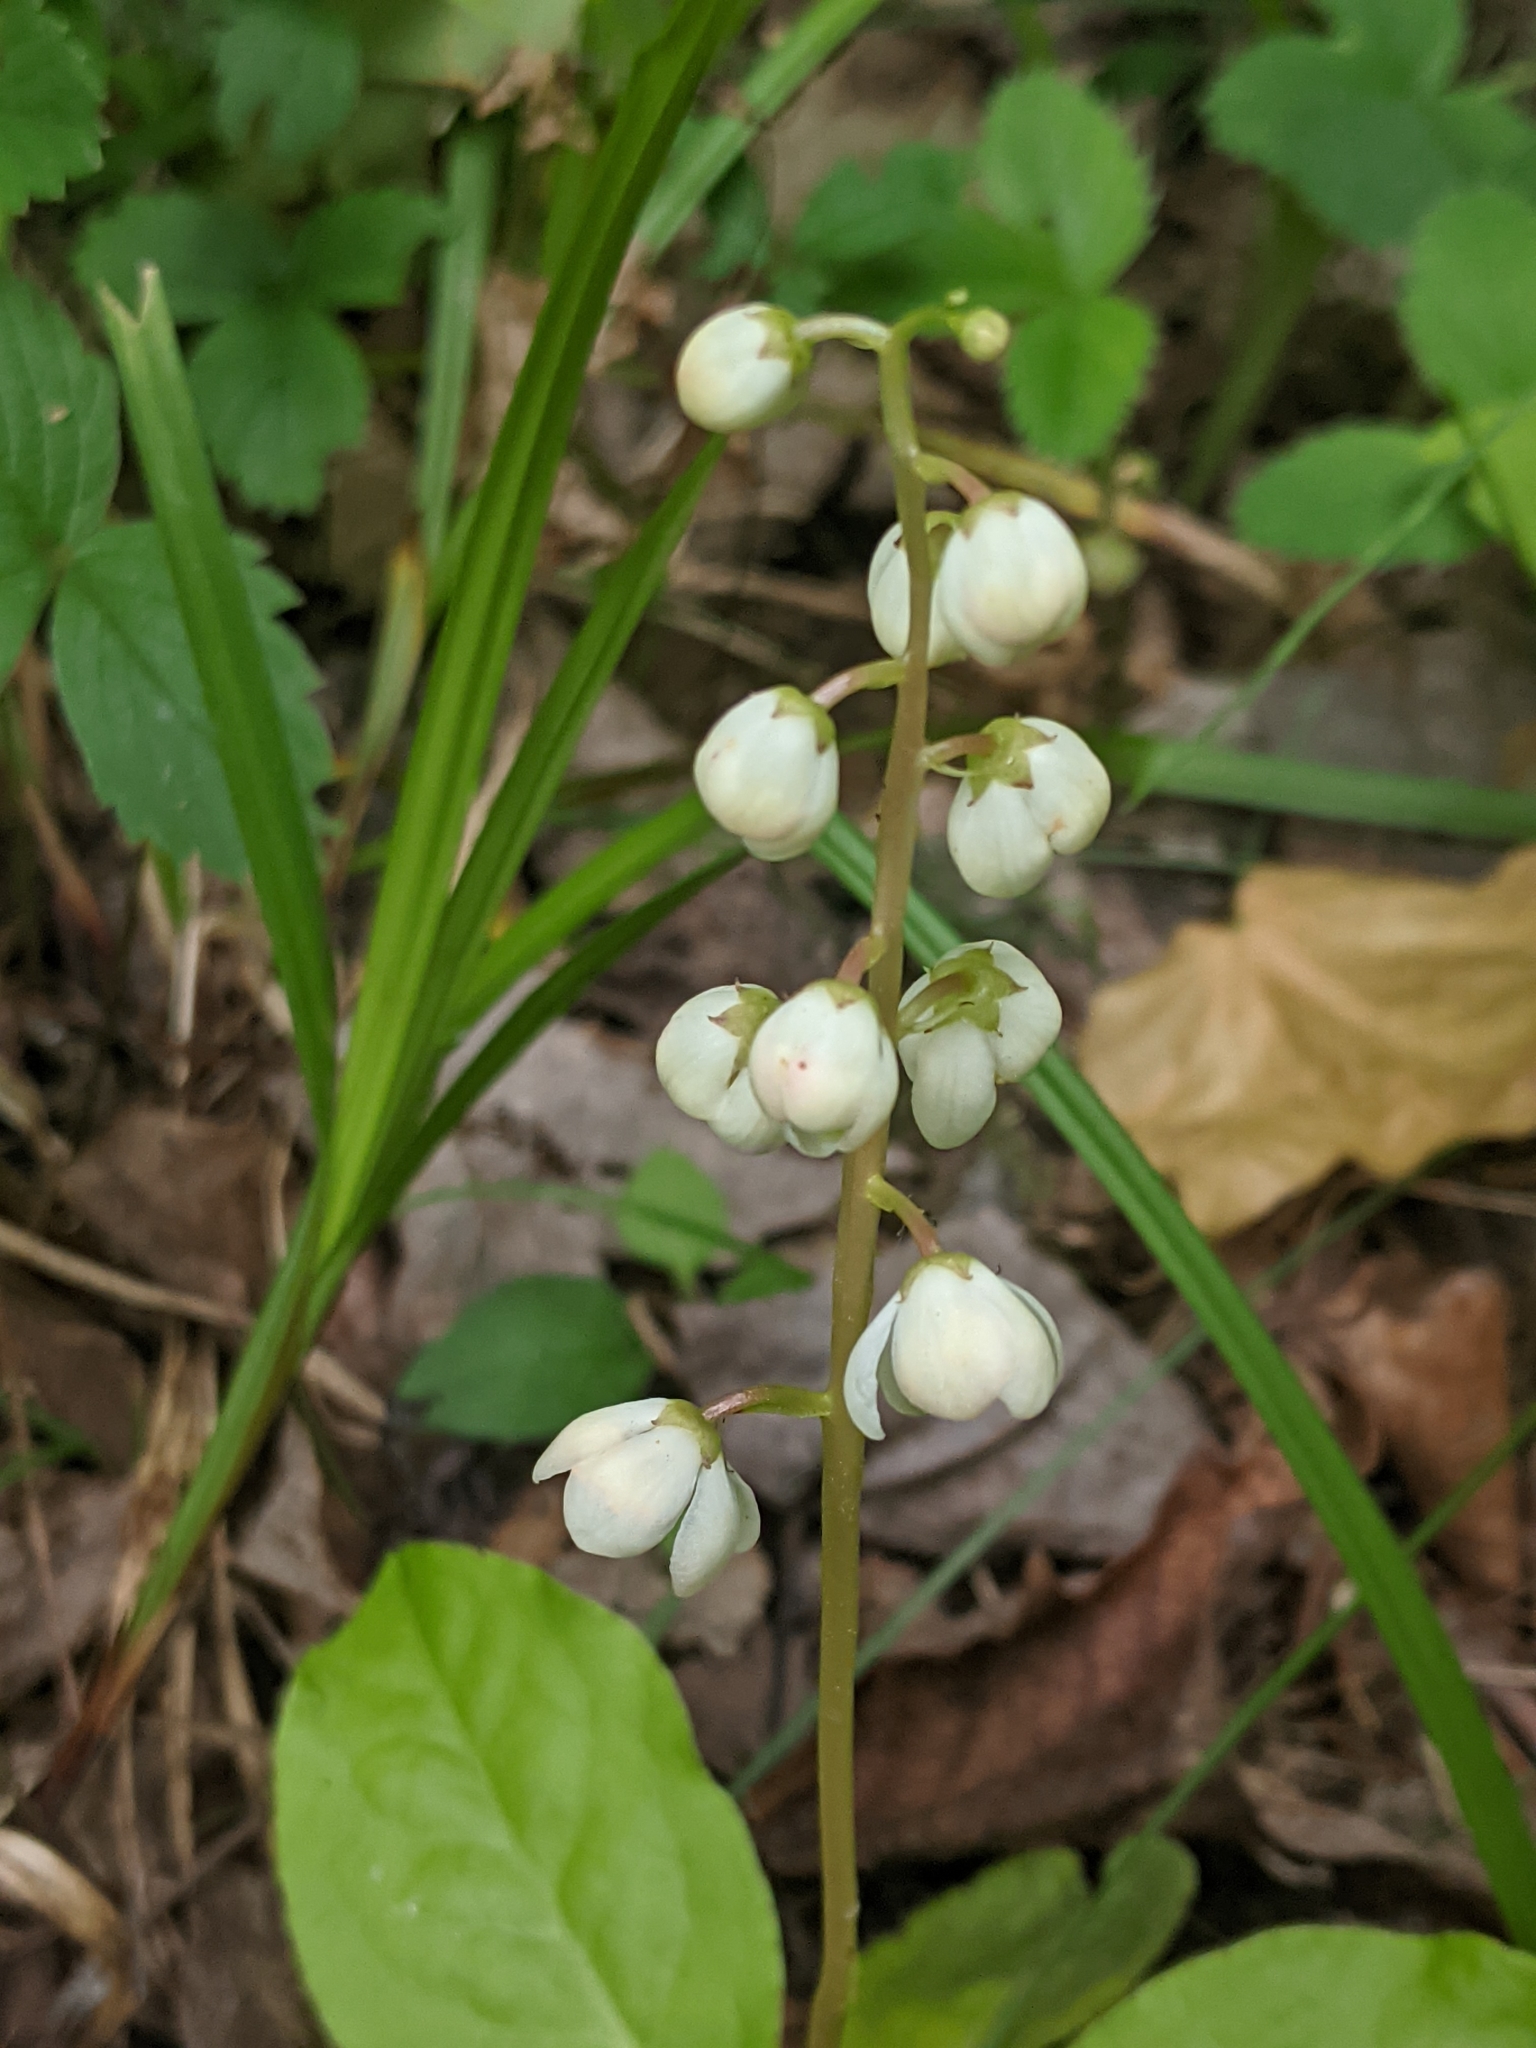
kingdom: Plantae
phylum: Tracheophyta
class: Magnoliopsida
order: Ericales
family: Ericaceae
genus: Pyrola
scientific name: Pyrola elliptica
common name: Shinleaf
